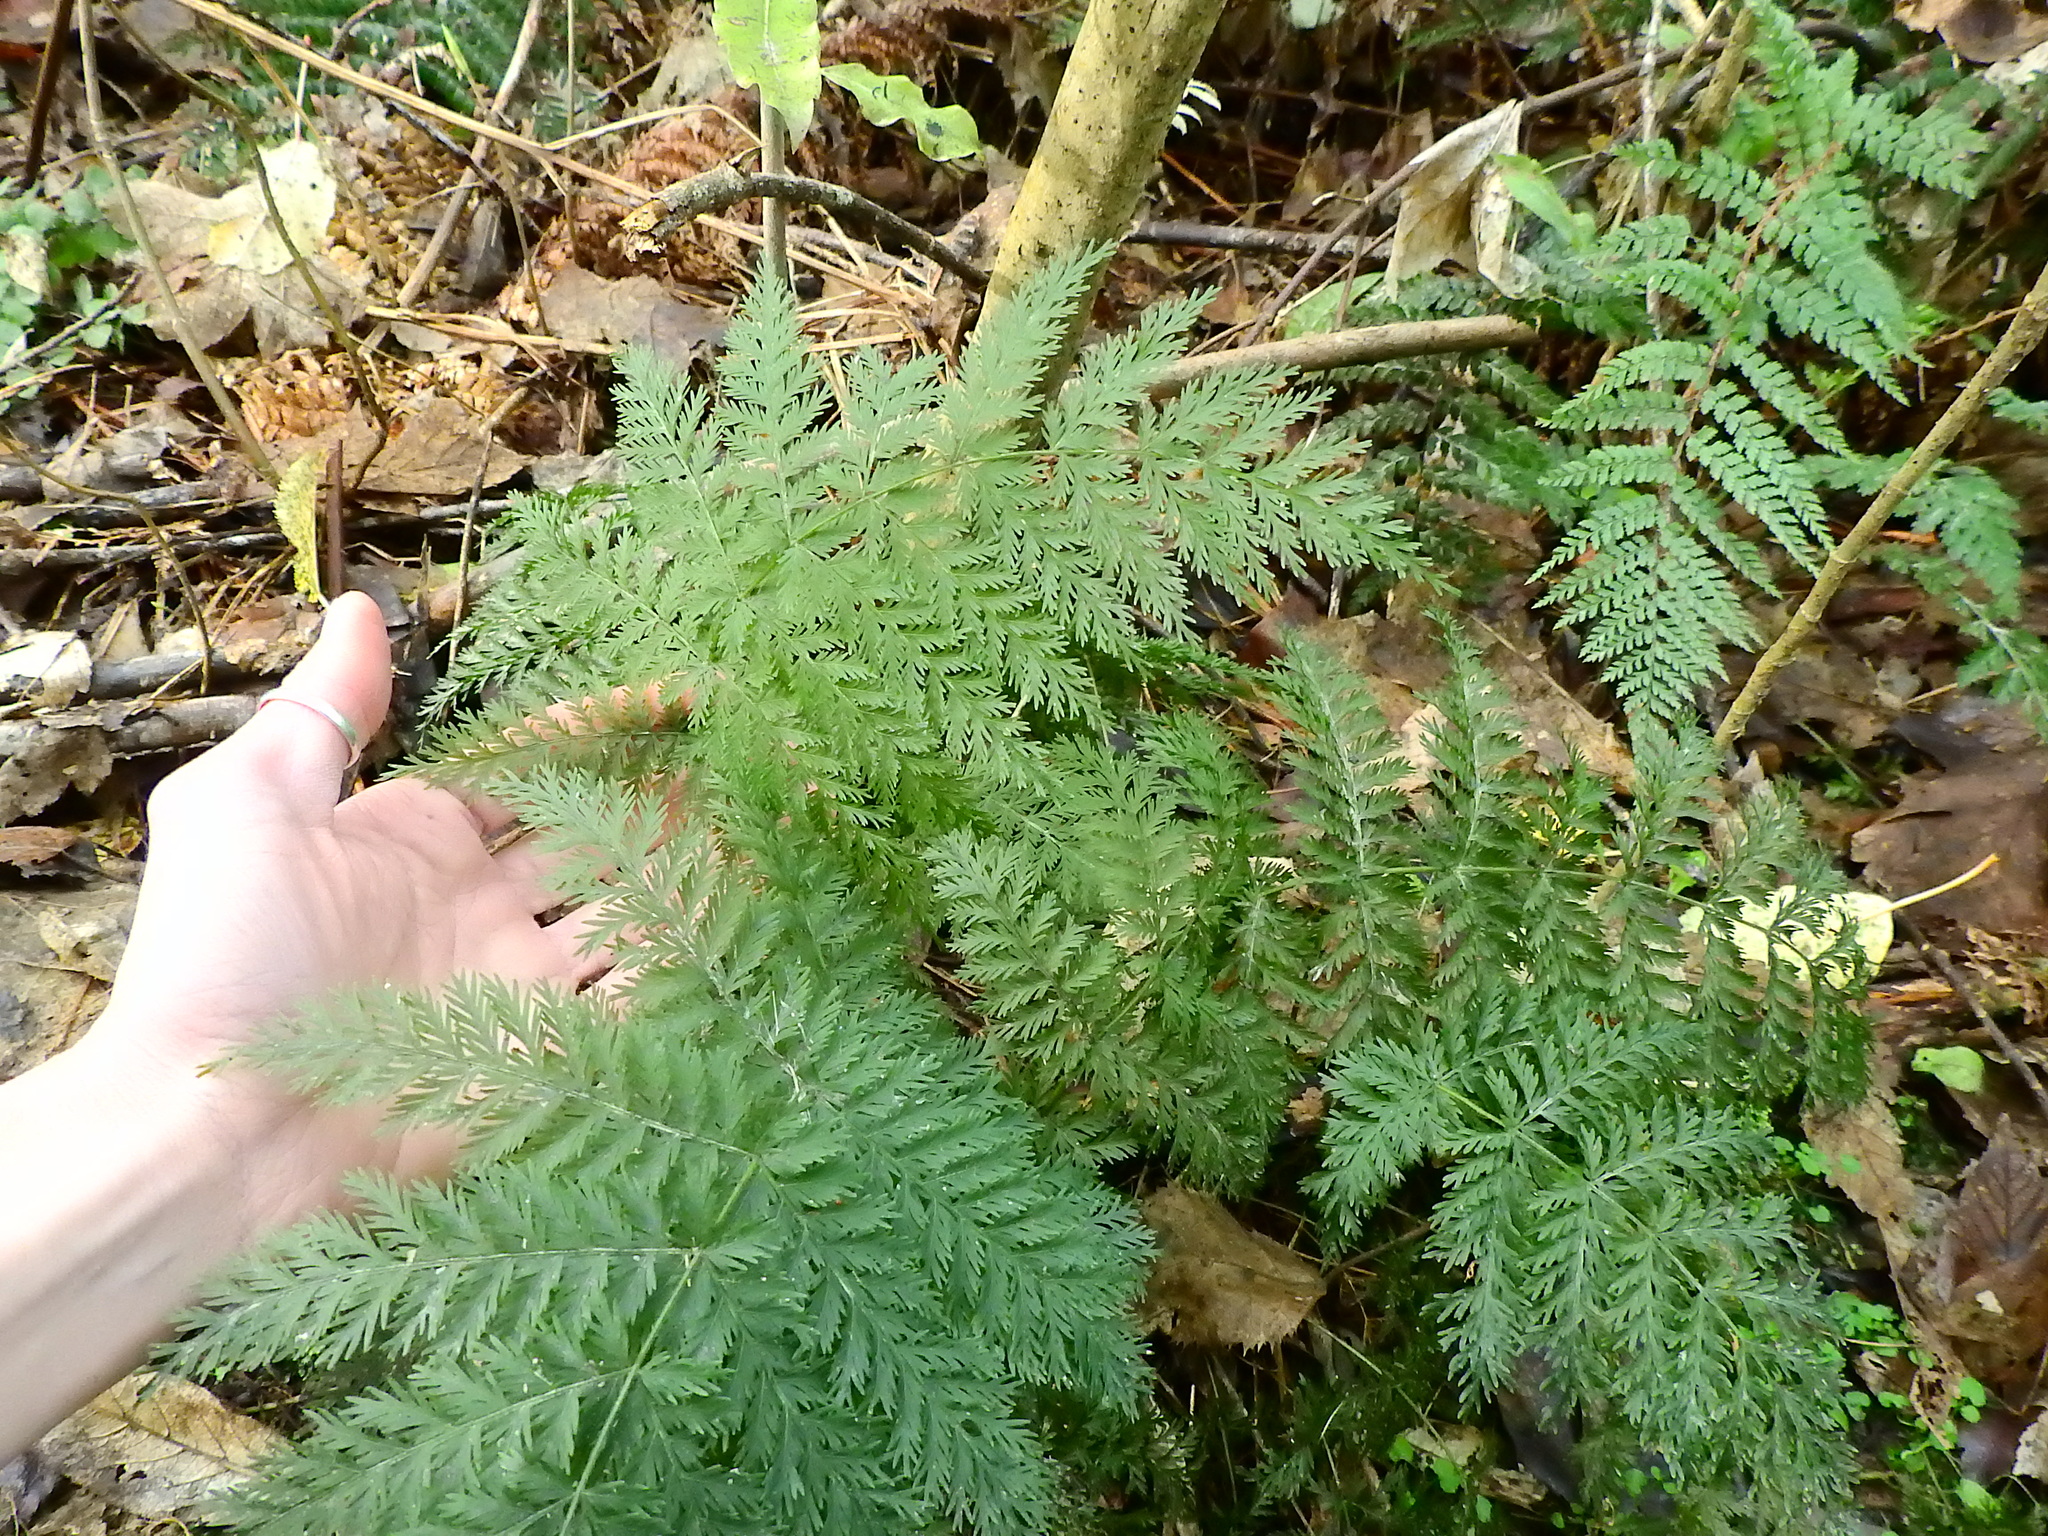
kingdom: Plantae
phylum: Tracheophyta
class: Polypodiopsida
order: Osmundales
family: Osmundaceae
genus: Leptopteris
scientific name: Leptopteris hymenophylloides
